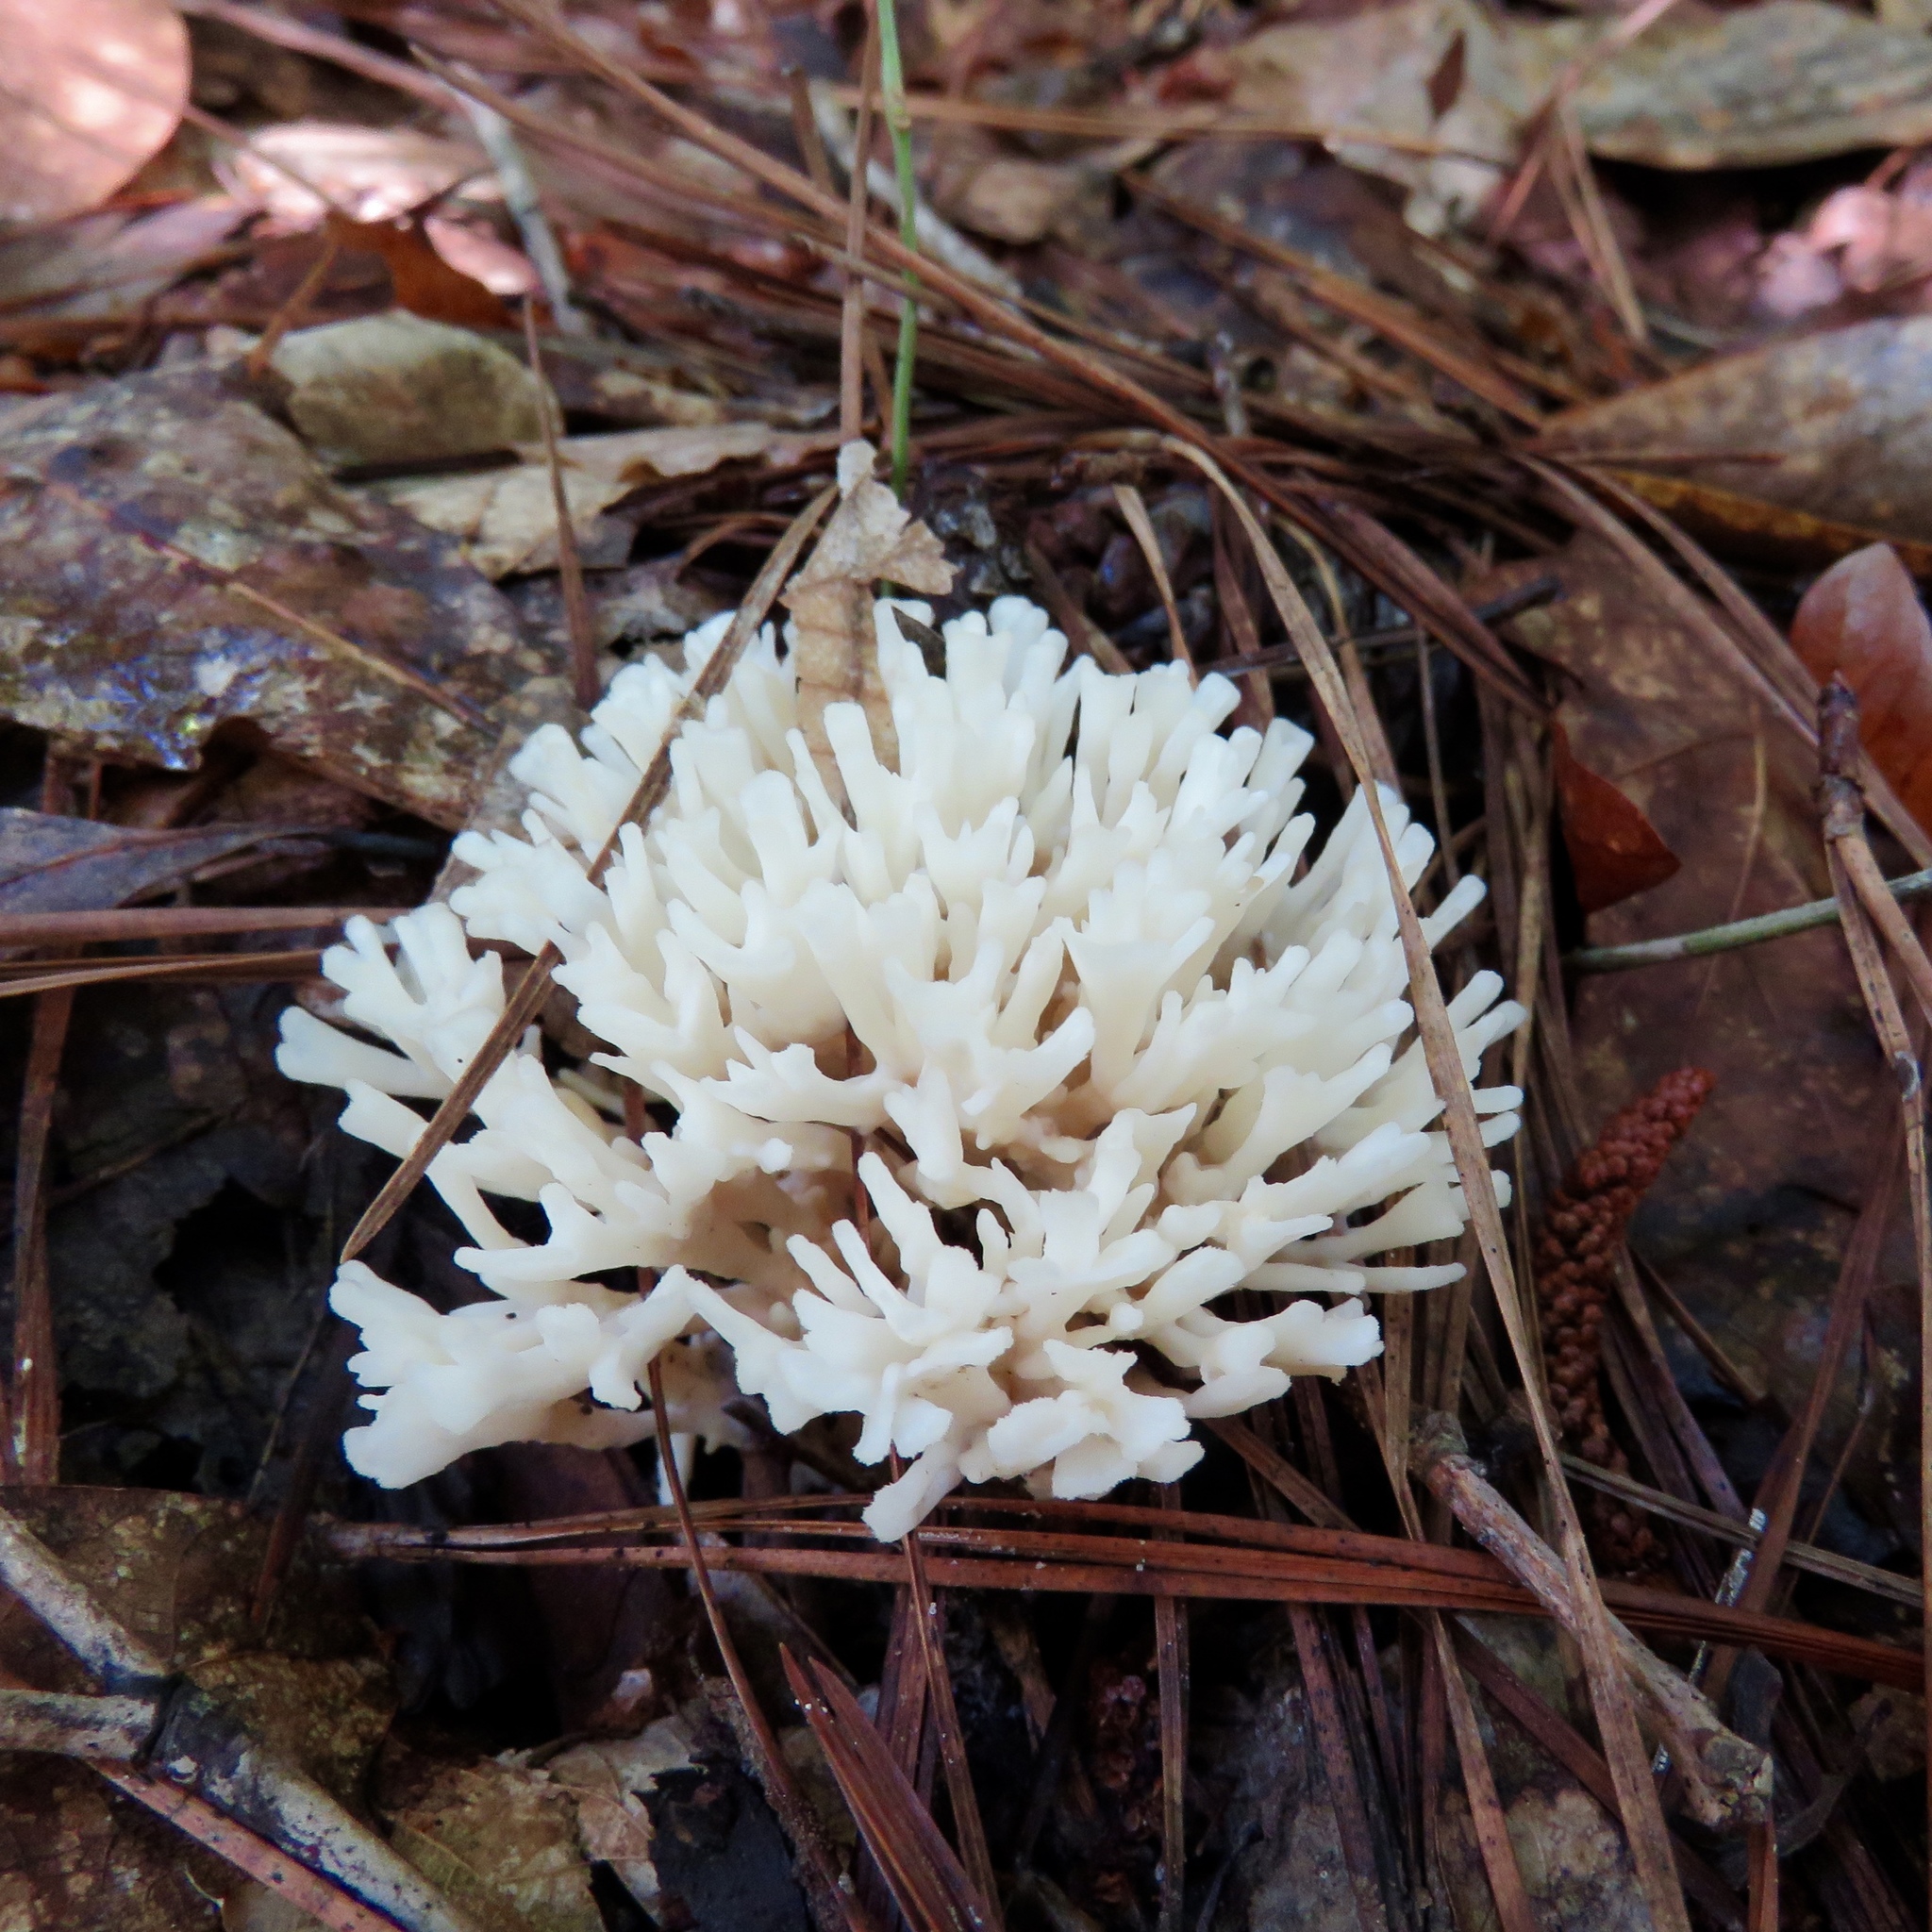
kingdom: Fungi
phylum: Basidiomycota
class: Agaricomycetes
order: Cantharellales
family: Hydnaceae
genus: Clavulina
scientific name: Clavulina coralloides
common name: Crested coral
